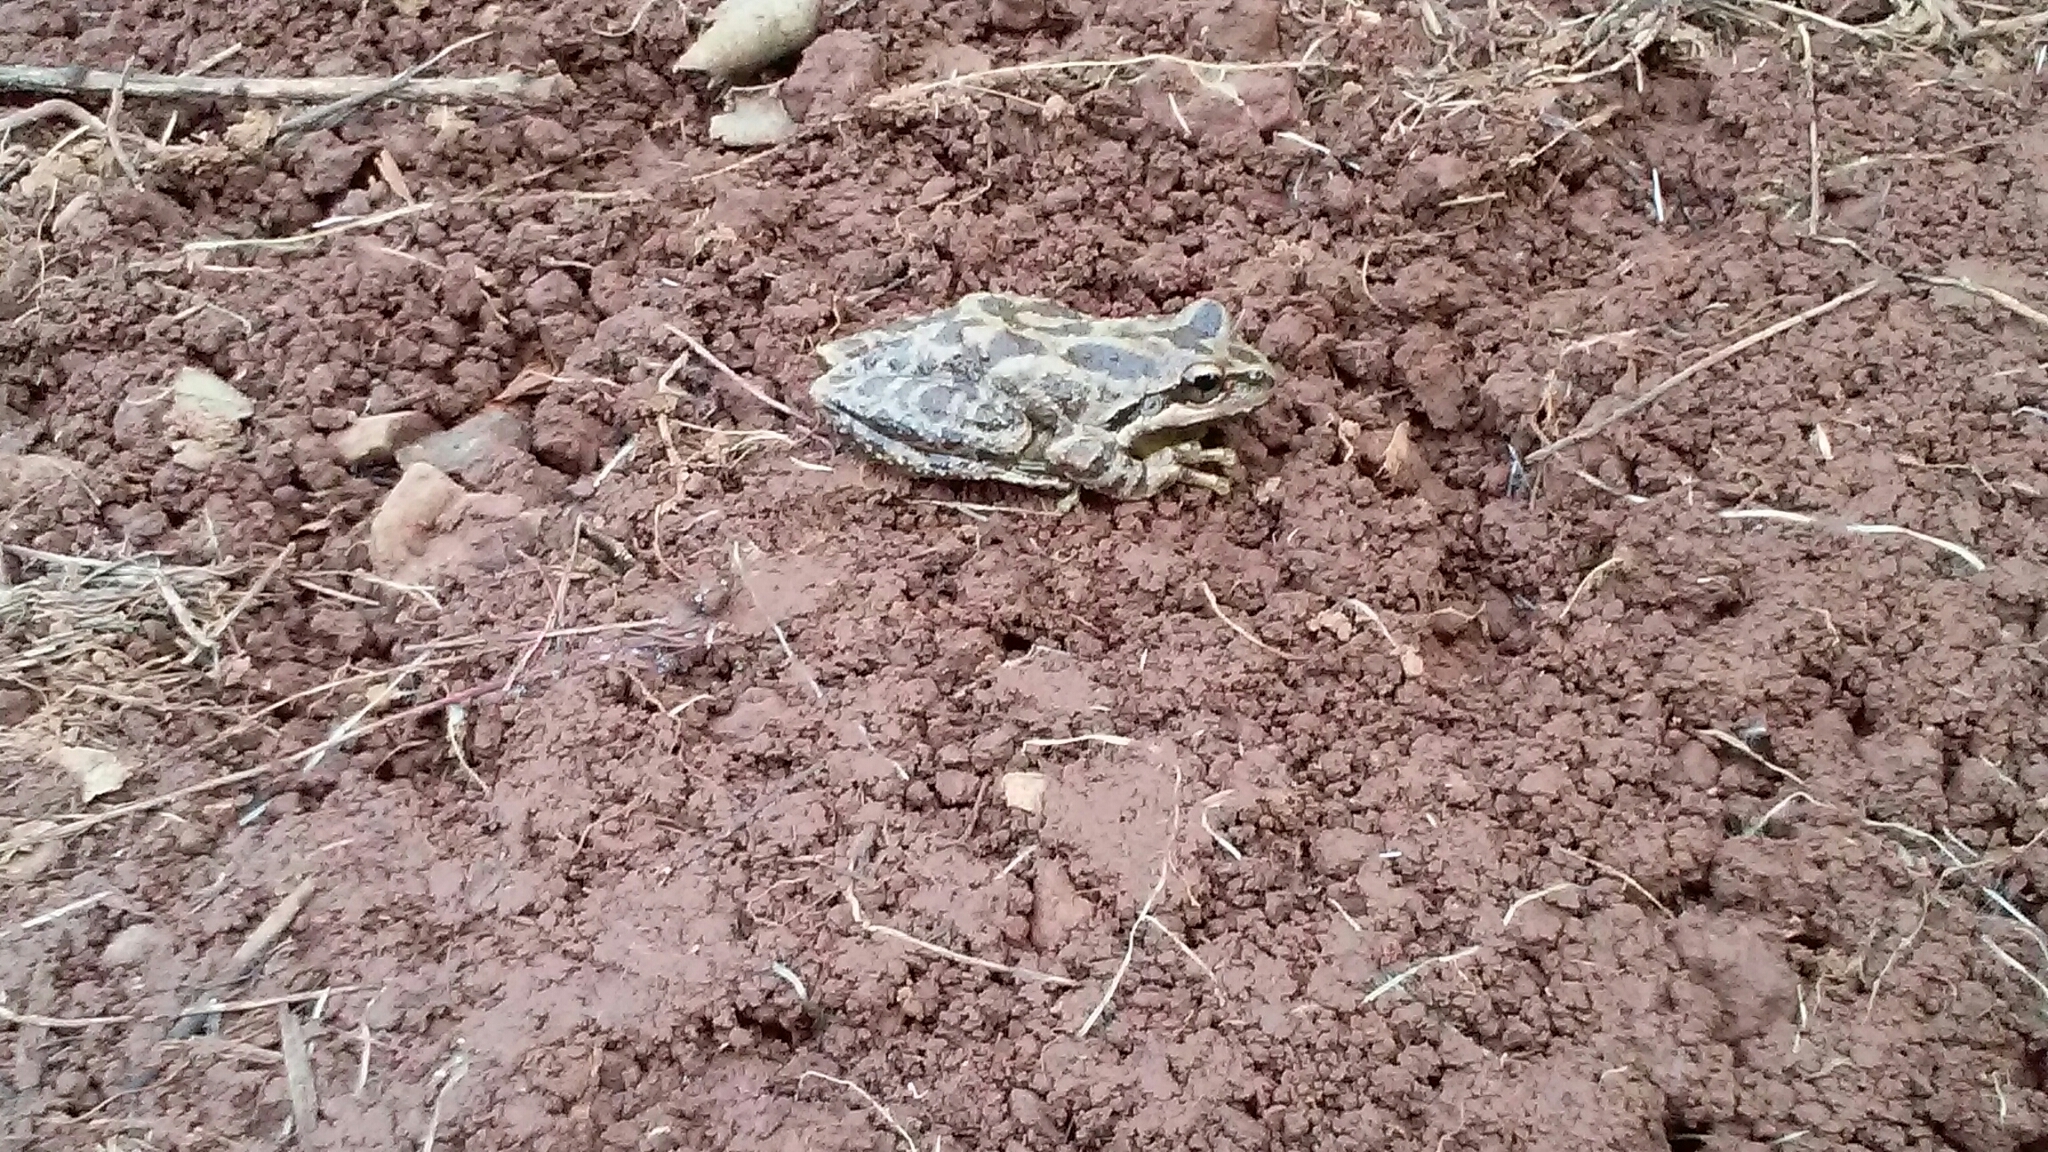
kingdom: Animalia
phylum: Chordata
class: Amphibia
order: Anura
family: Hylidae
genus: Pseudacris
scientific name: Pseudacris regilla
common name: Pacific chorus frog
